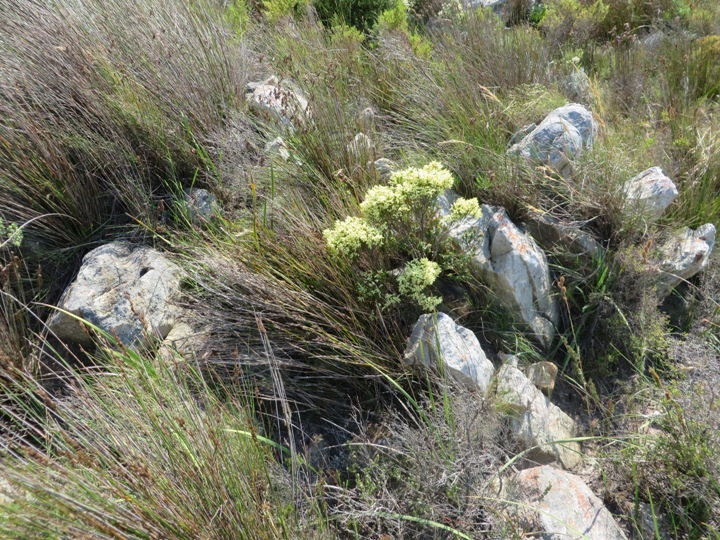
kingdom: Plantae
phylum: Tracheophyta
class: Magnoliopsida
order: Ericales
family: Ericaceae
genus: Erica
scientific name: Erica lutea
